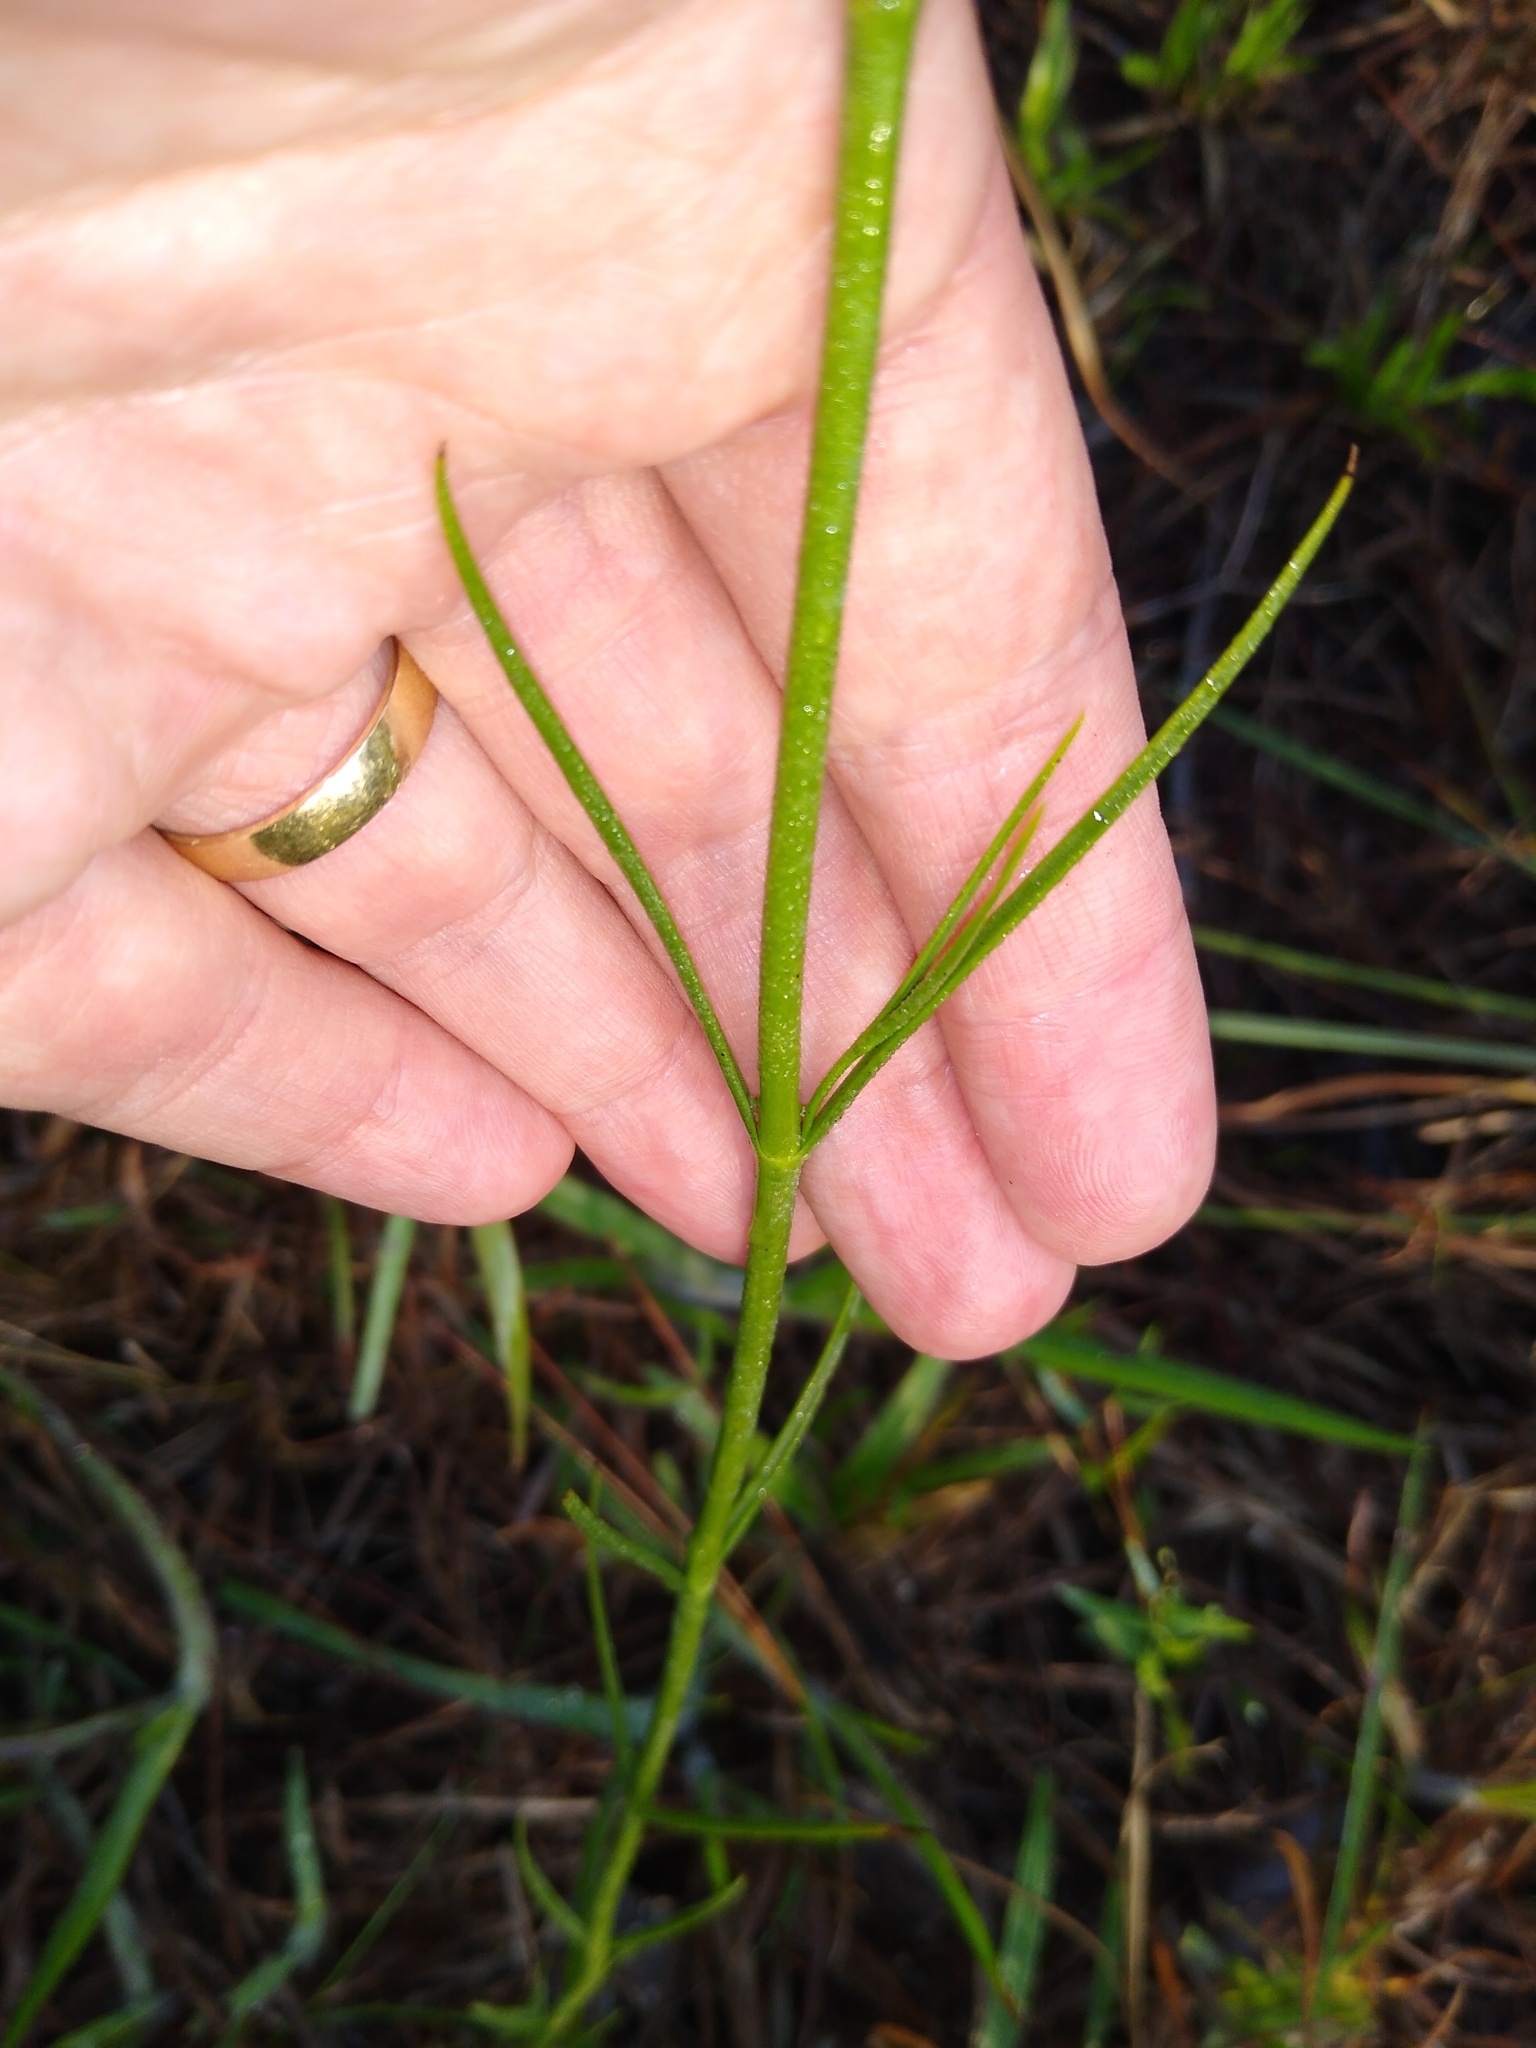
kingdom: Plantae
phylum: Tracheophyta
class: Magnoliopsida
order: Gentianales
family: Gentianaceae
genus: Sabatia
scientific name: Sabatia grandiflora
